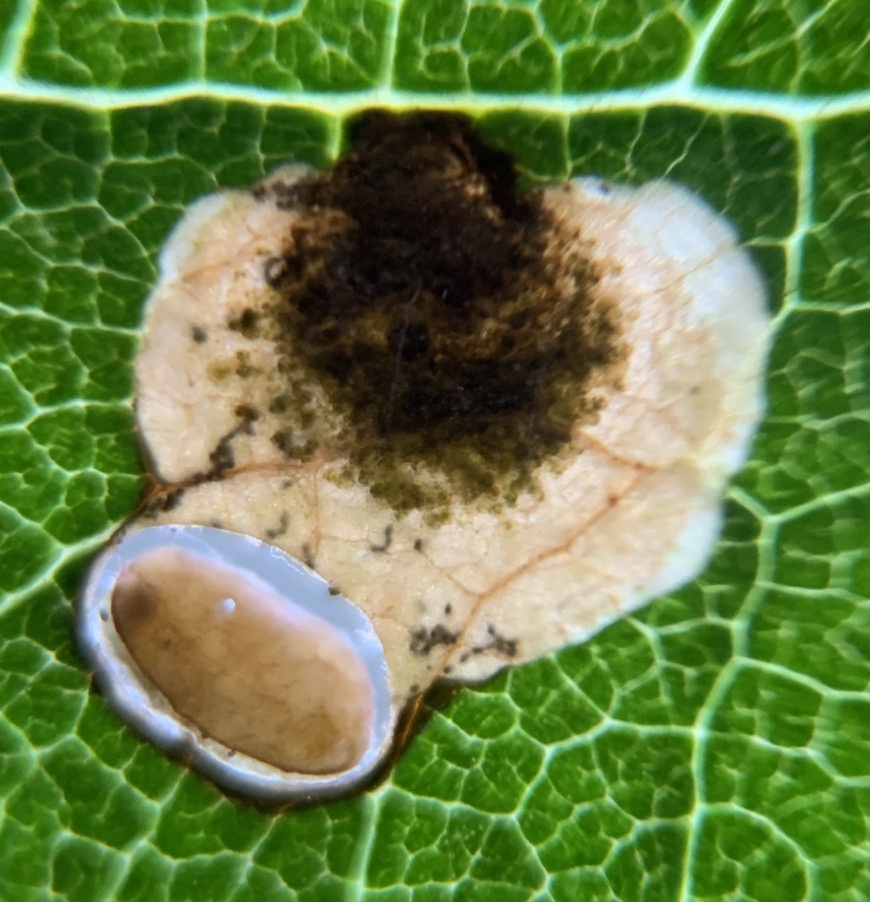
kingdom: Animalia
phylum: Arthropoda
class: Insecta
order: Lepidoptera
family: Heliozelidae
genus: Antispila
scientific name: Antispila oinophylla
